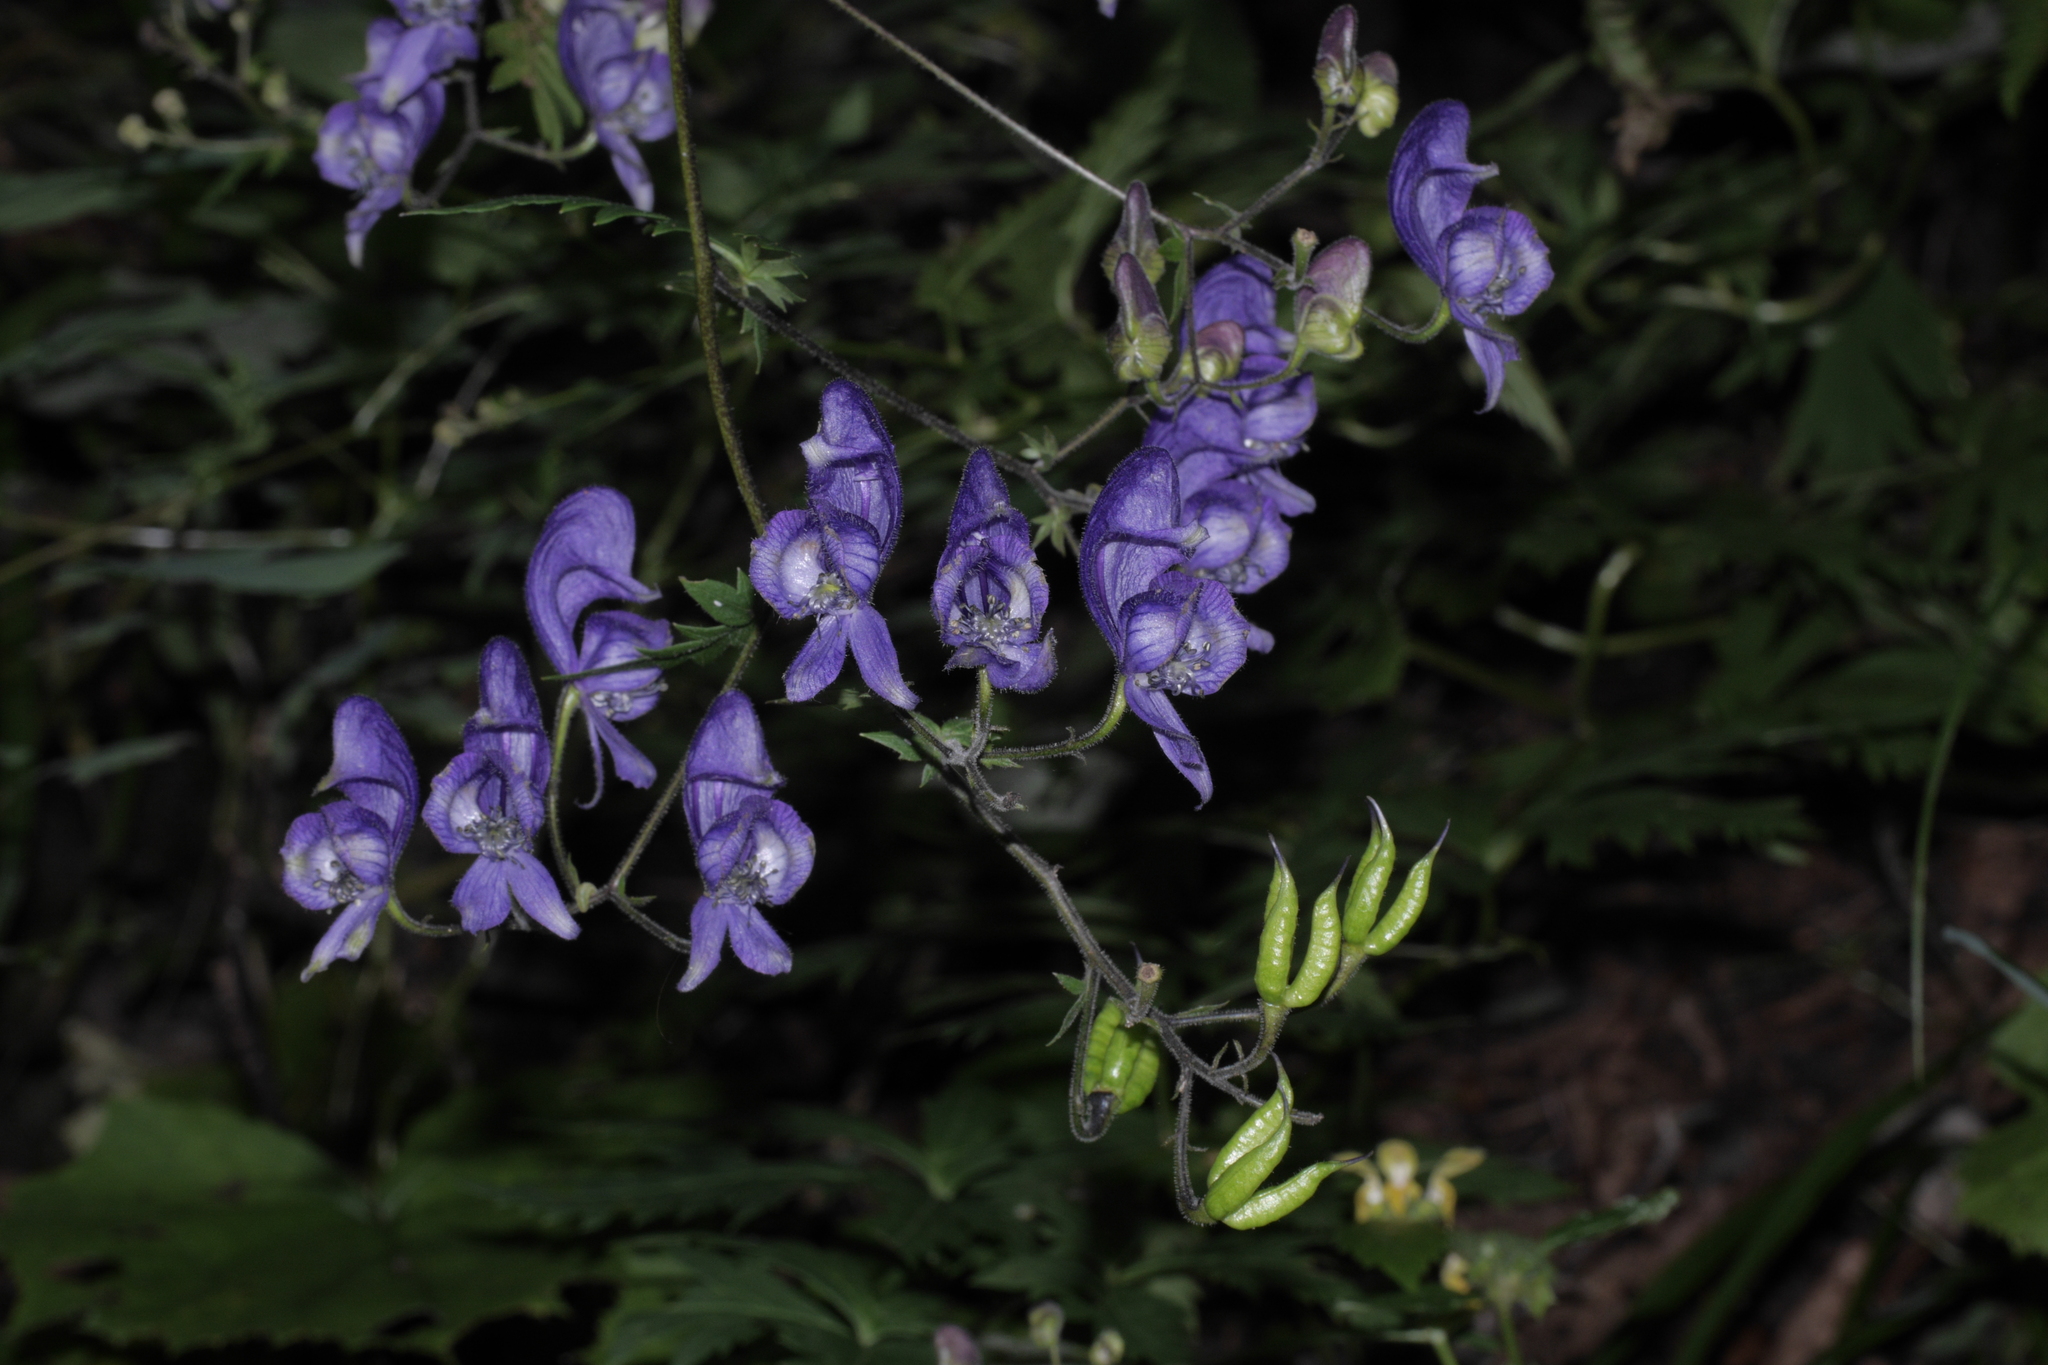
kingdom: Plantae
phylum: Tracheophyta
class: Magnoliopsida
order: Ranunculales
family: Ranunculaceae
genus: Aconitum
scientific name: Aconitum degenii
